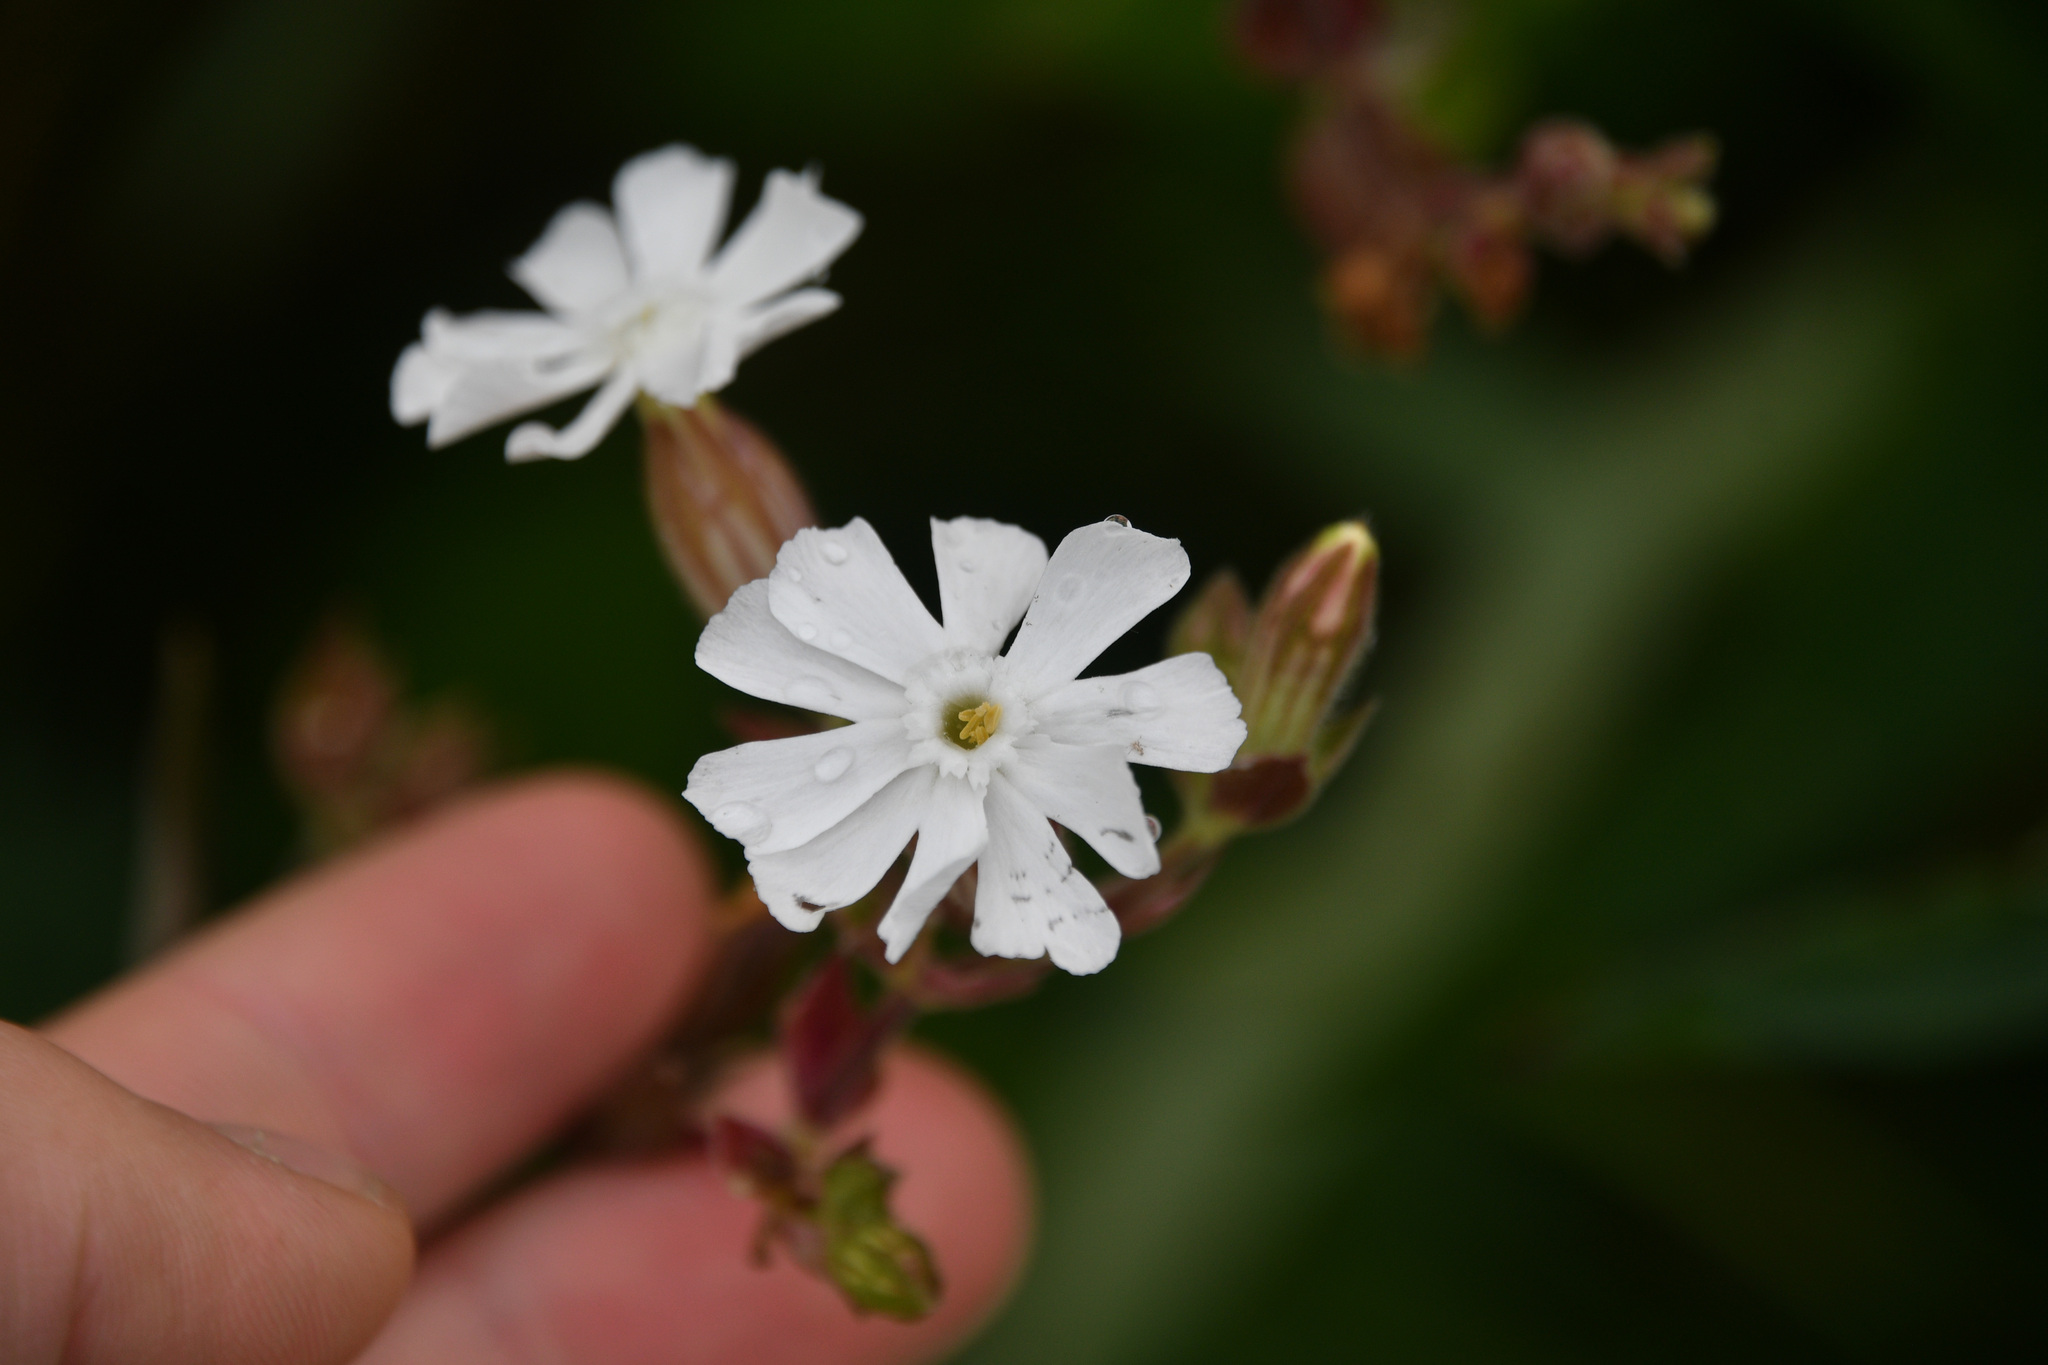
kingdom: Plantae
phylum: Tracheophyta
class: Magnoliopsida
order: Caryophyllales
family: Caryophyllaceae
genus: Silene
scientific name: Silene latifolia
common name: White campion
